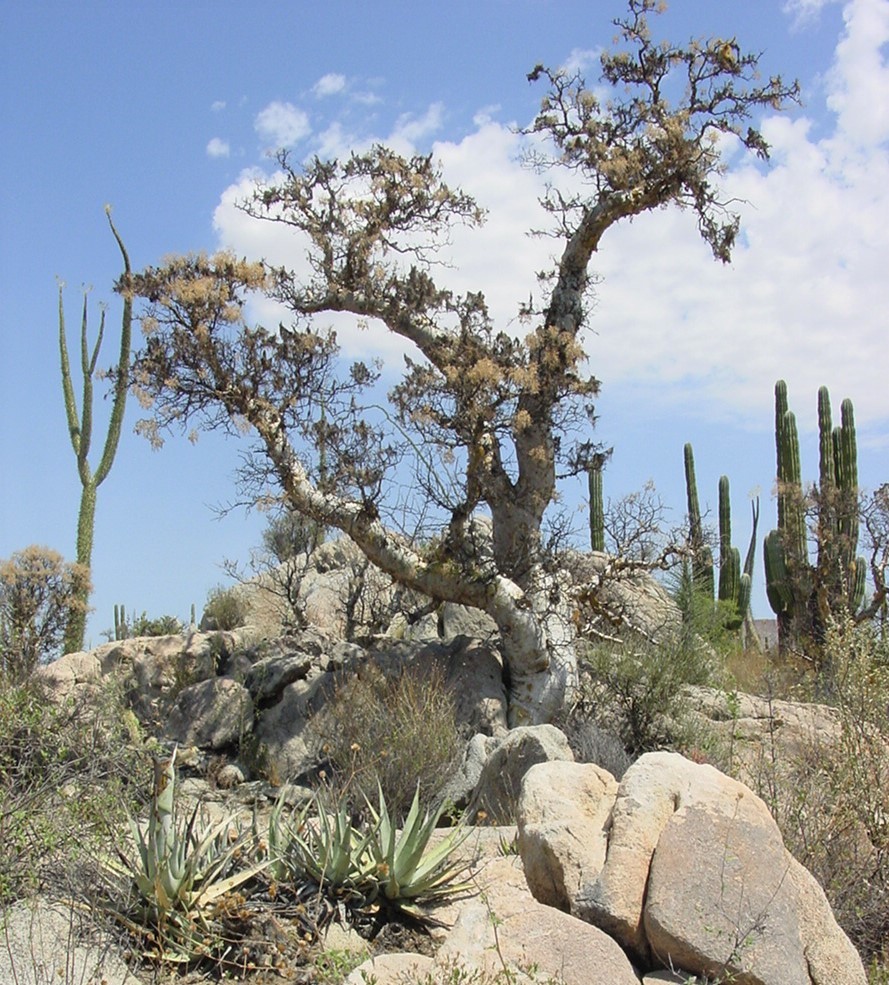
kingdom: Plantae
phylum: Tracheophyta
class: Magnoliopsida
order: Sapindales
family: Anacardiaceae
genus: Pachycormus
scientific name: Pachycormus discolor
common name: Succulent elephant trees
